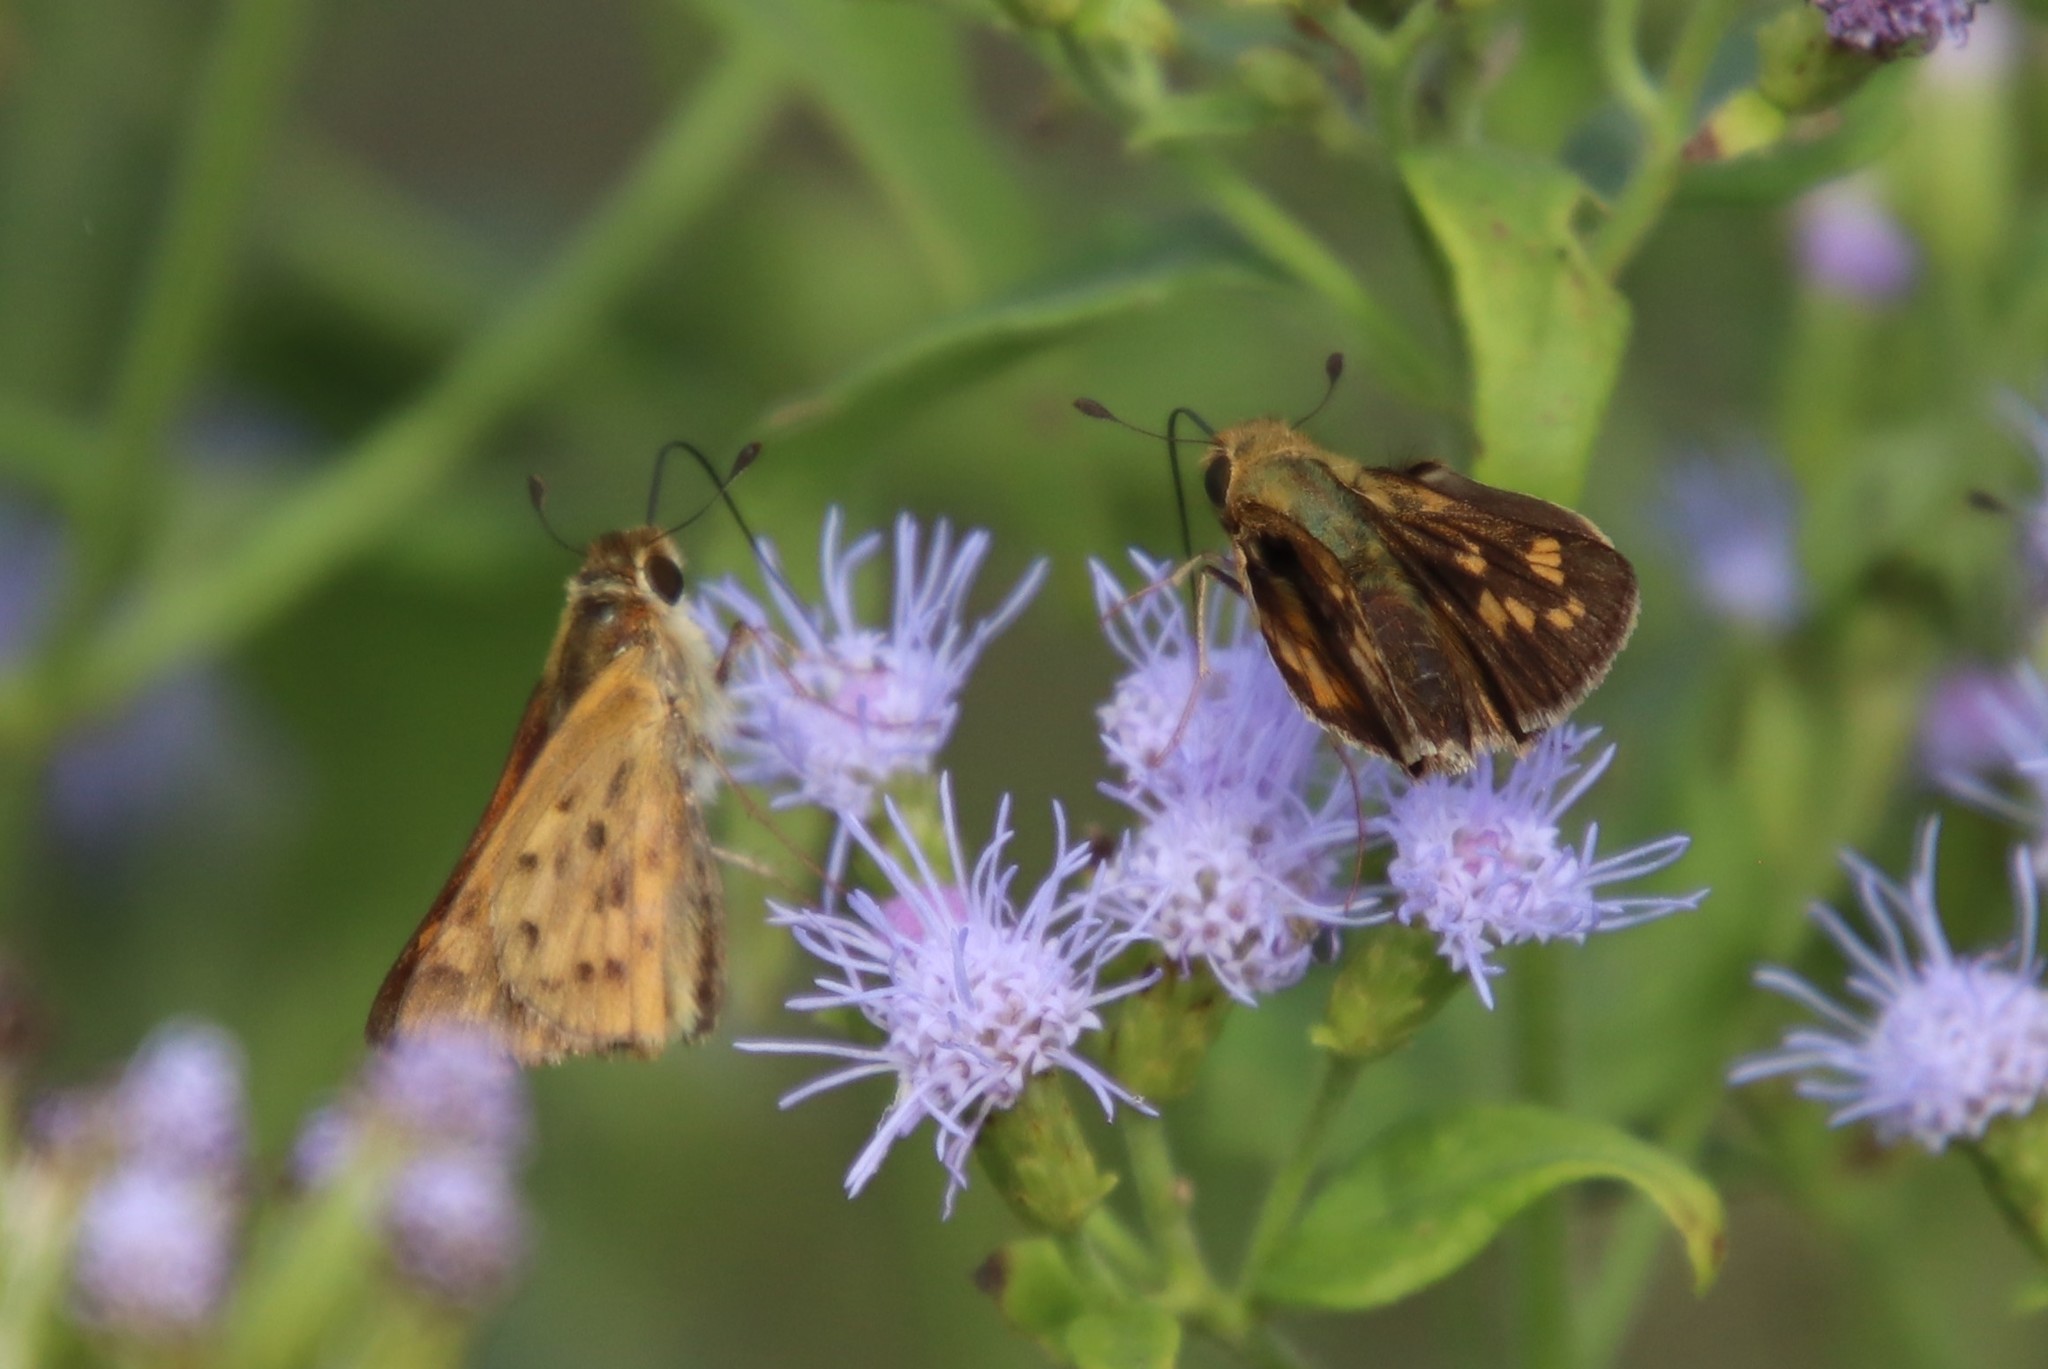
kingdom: Animalia
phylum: Arthropoda
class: Insecta
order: Lepidoptera
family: Hesperiidae
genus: Hylephila
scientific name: Hylephila phyleus
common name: Fiery skipper
